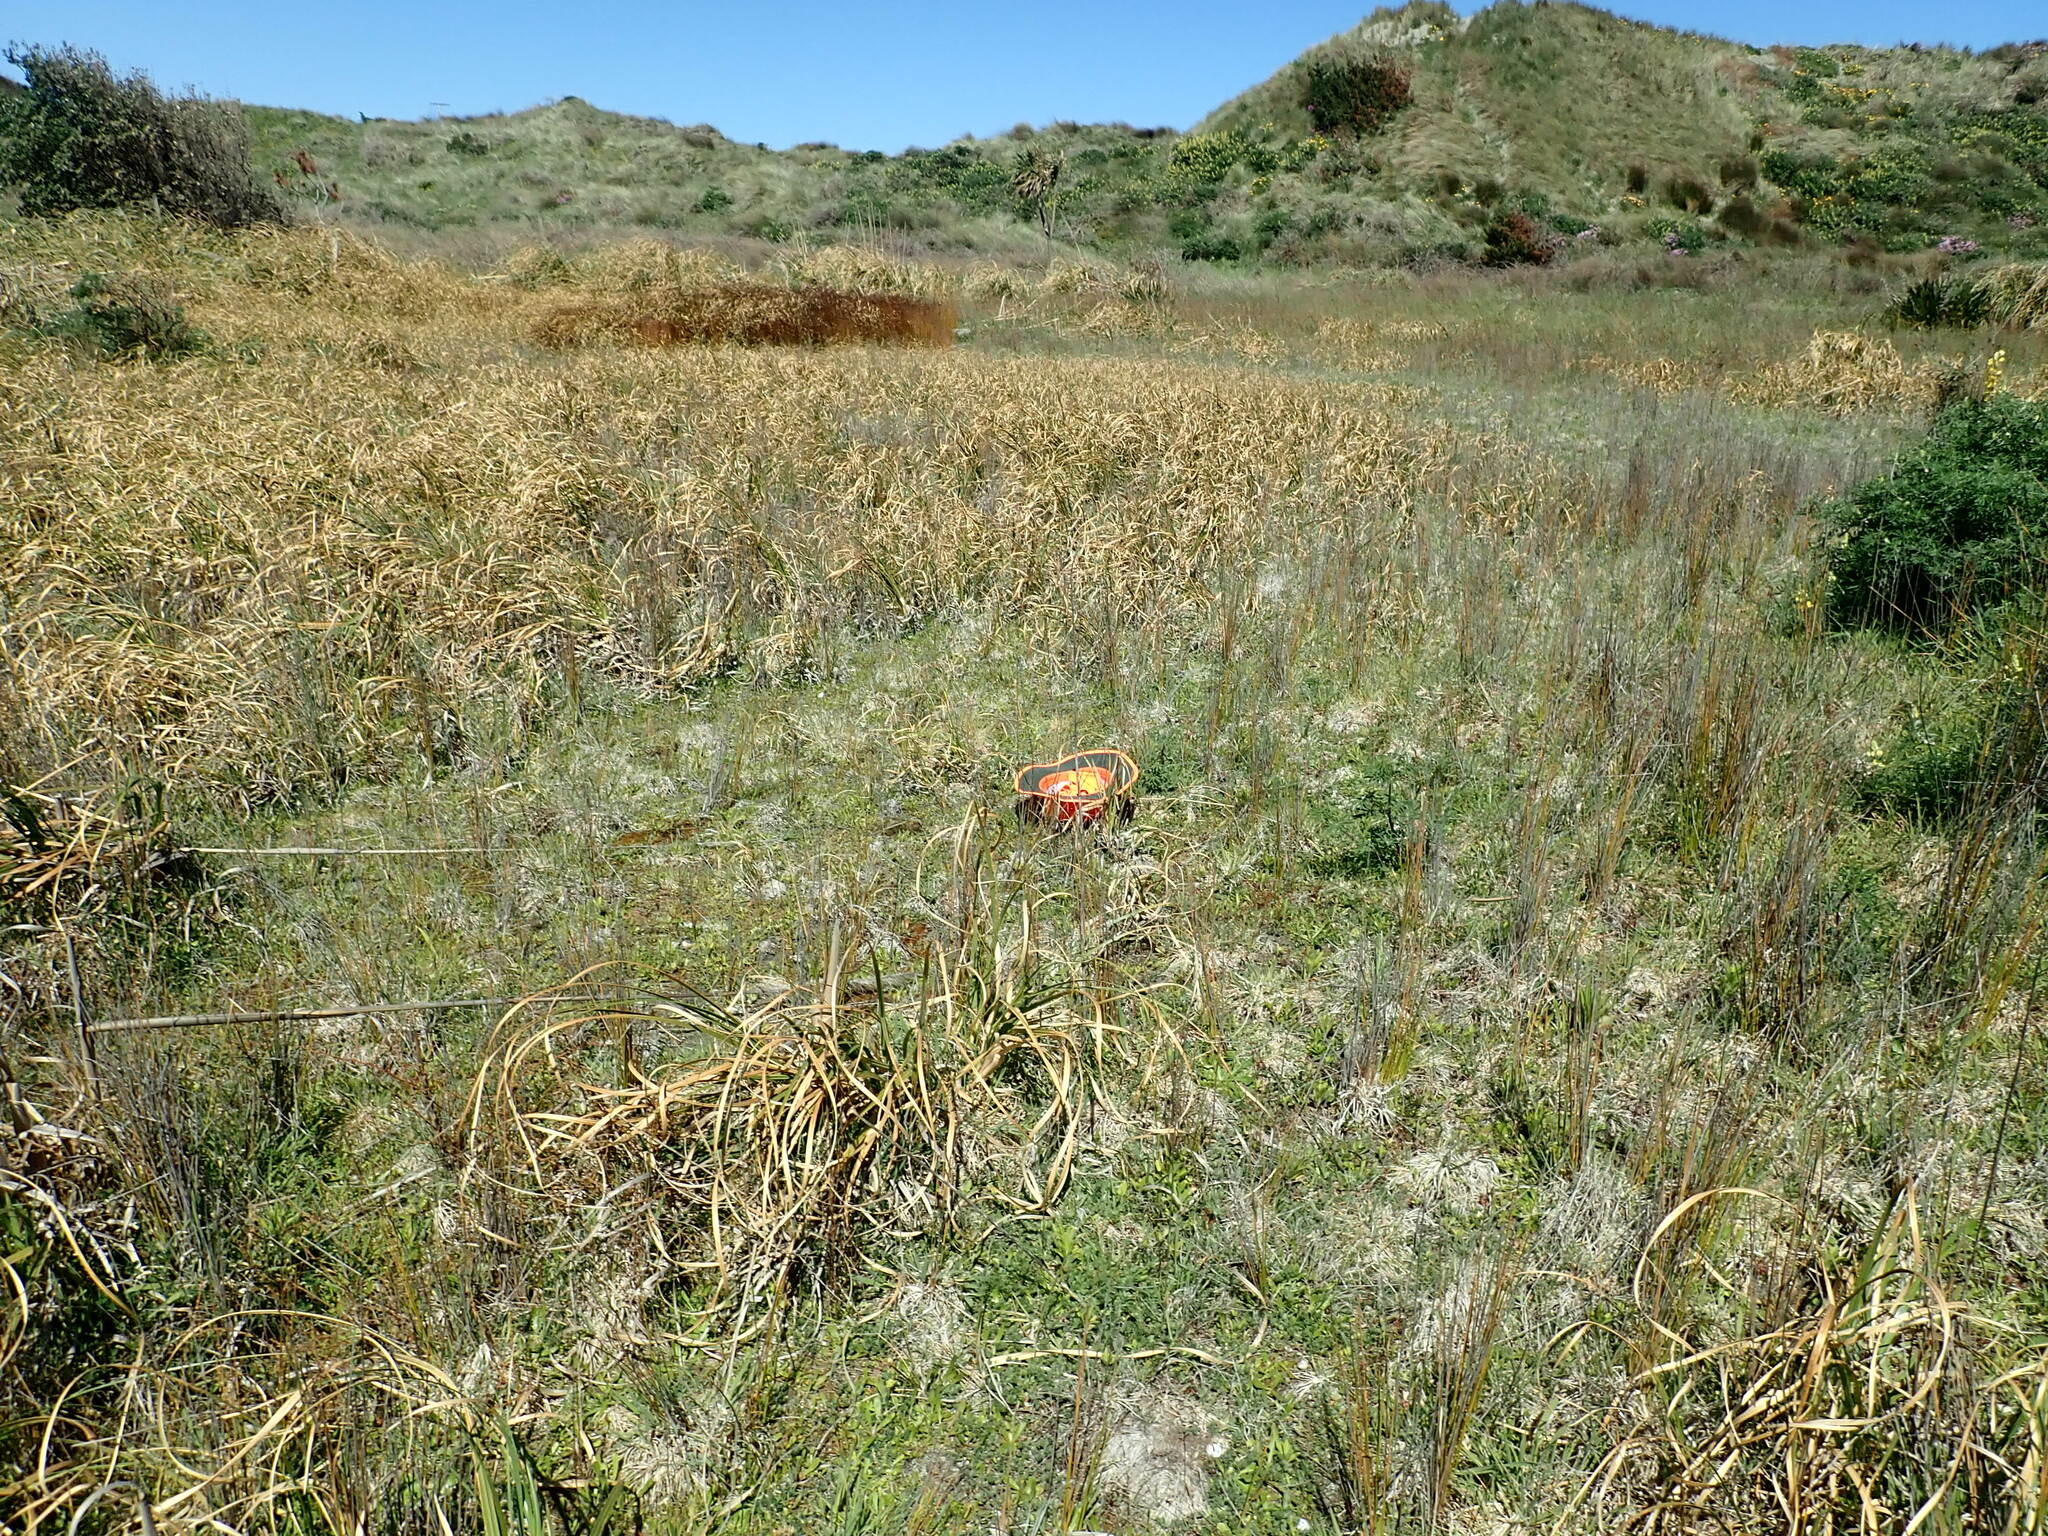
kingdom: Plantae
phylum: Tracheophyta
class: Magnoliopsida
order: Caryophyllales
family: Polygonaceae
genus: Rumex
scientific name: Rumex acetosella
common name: Common sheep sorrel
